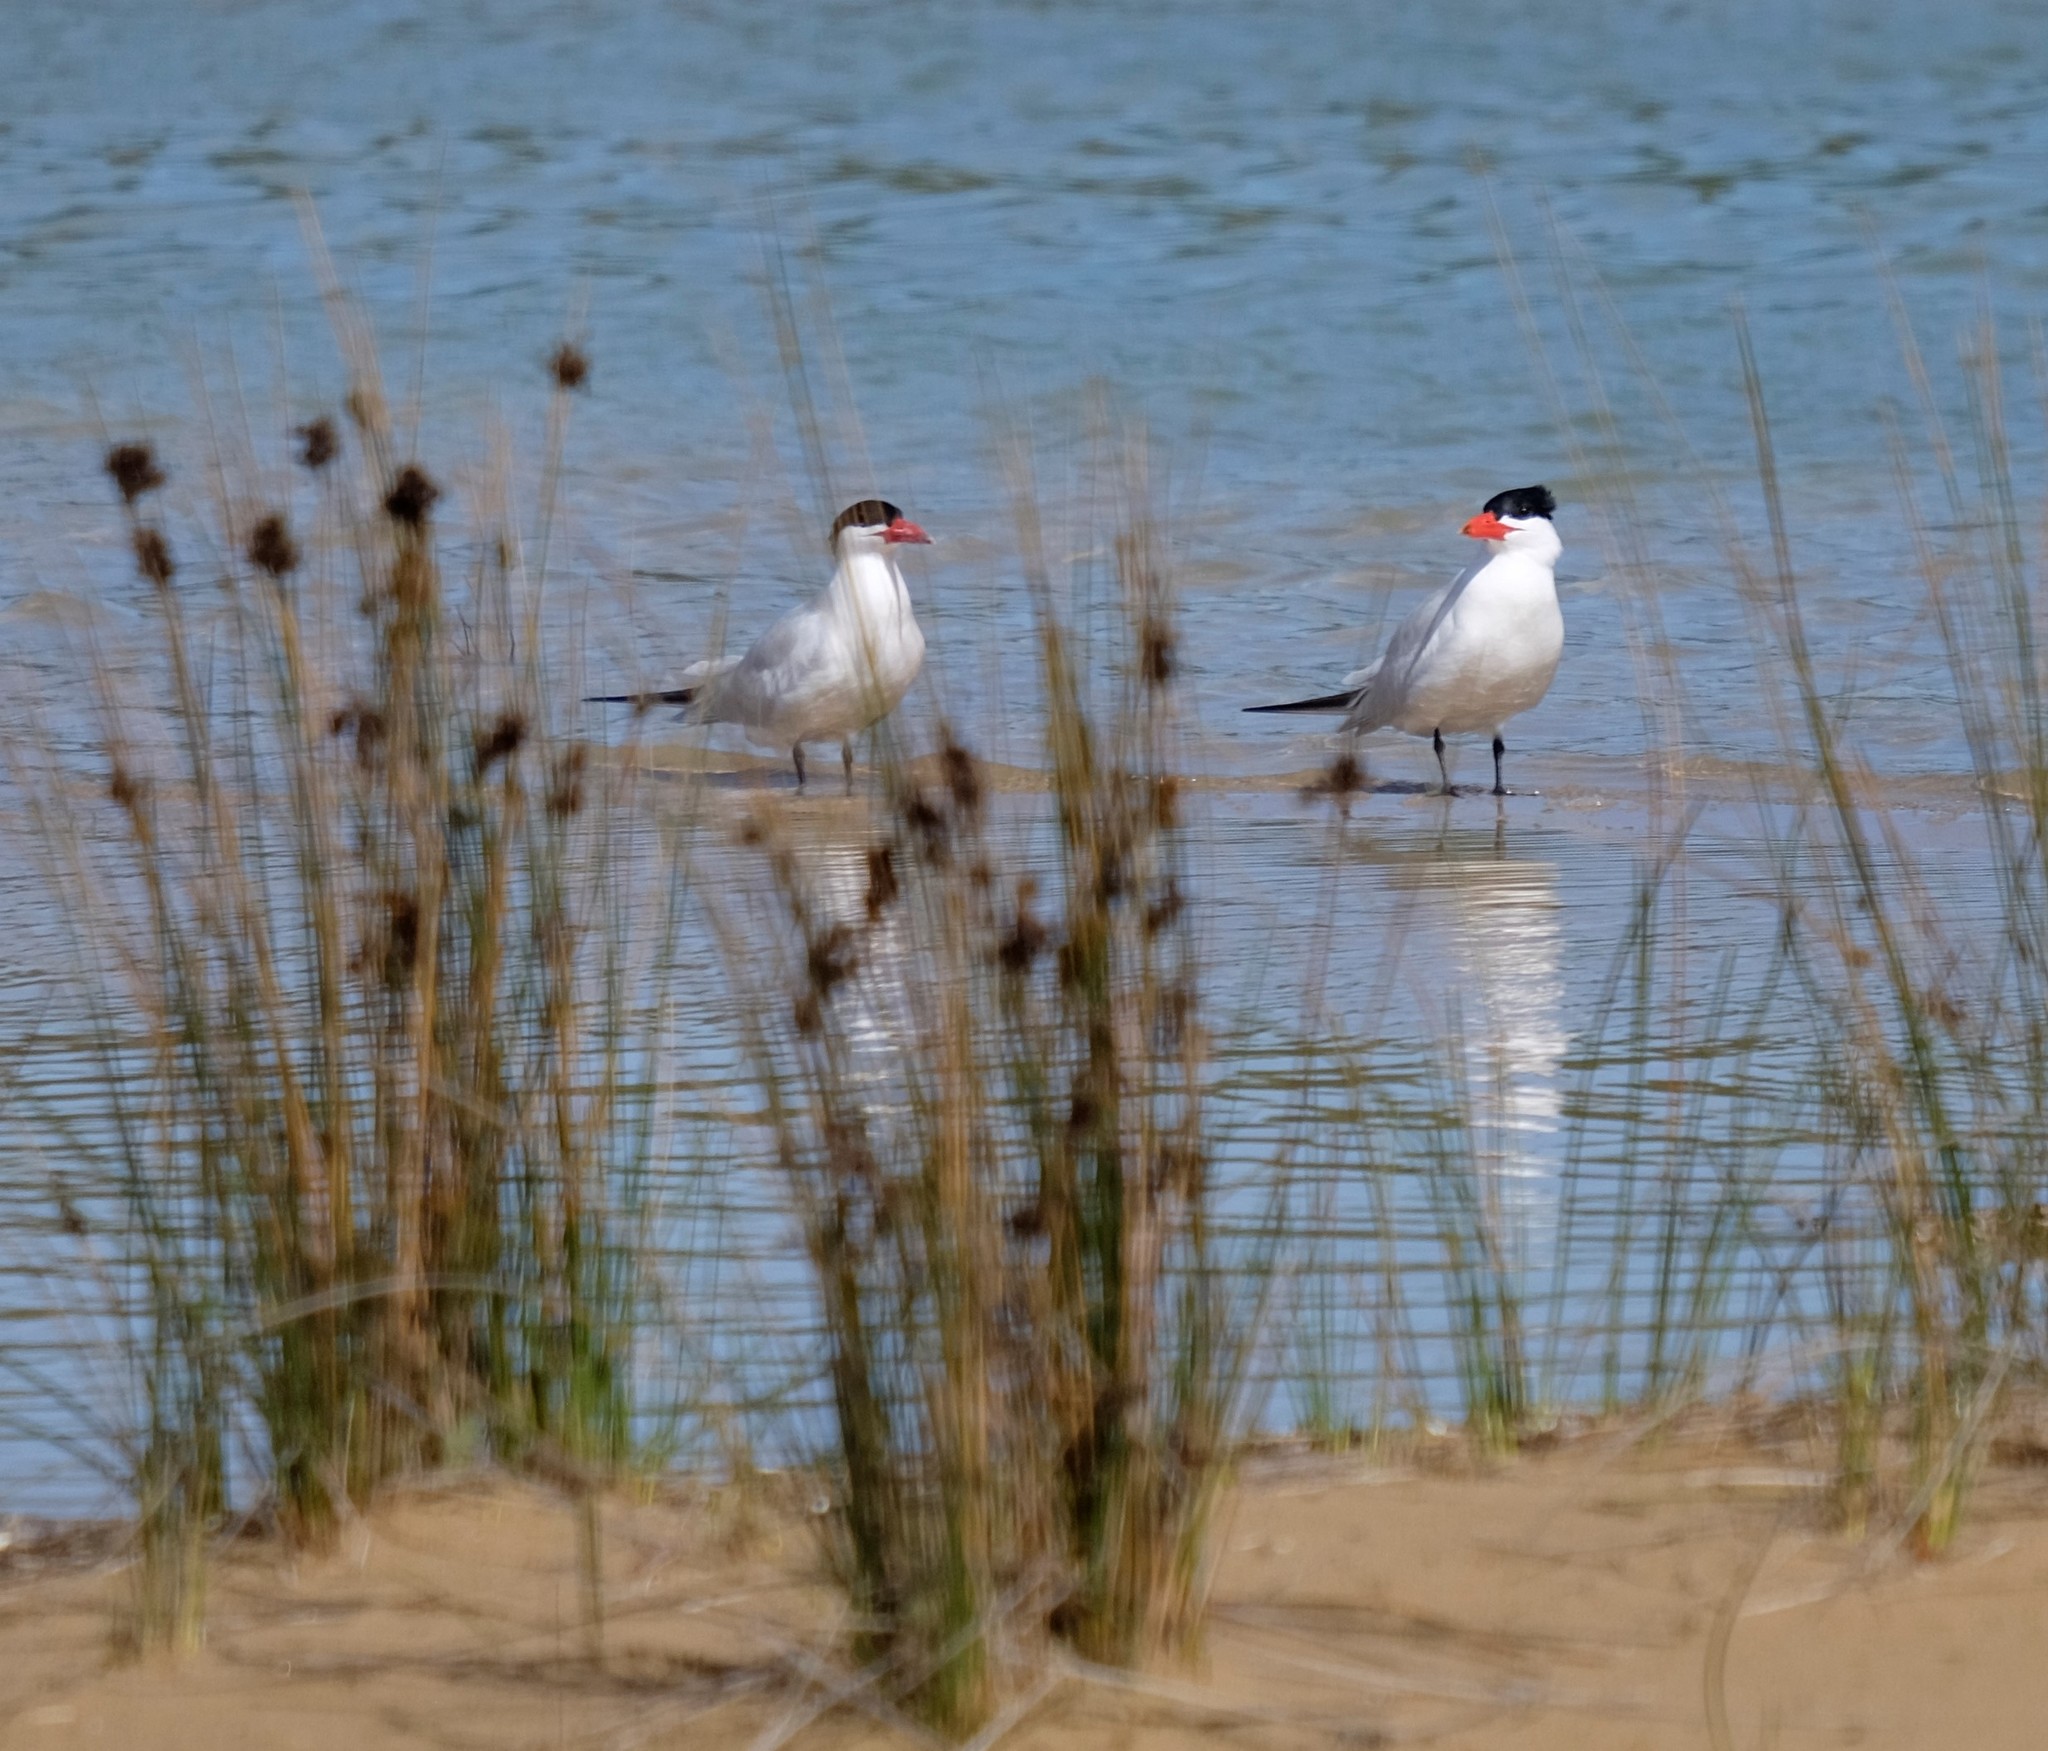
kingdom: Animalia
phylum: Chordata
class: Aves
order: Charadriiformes
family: Laridae
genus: Hydroprogne
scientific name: Hydroprogne caspia
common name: Caspian tern
